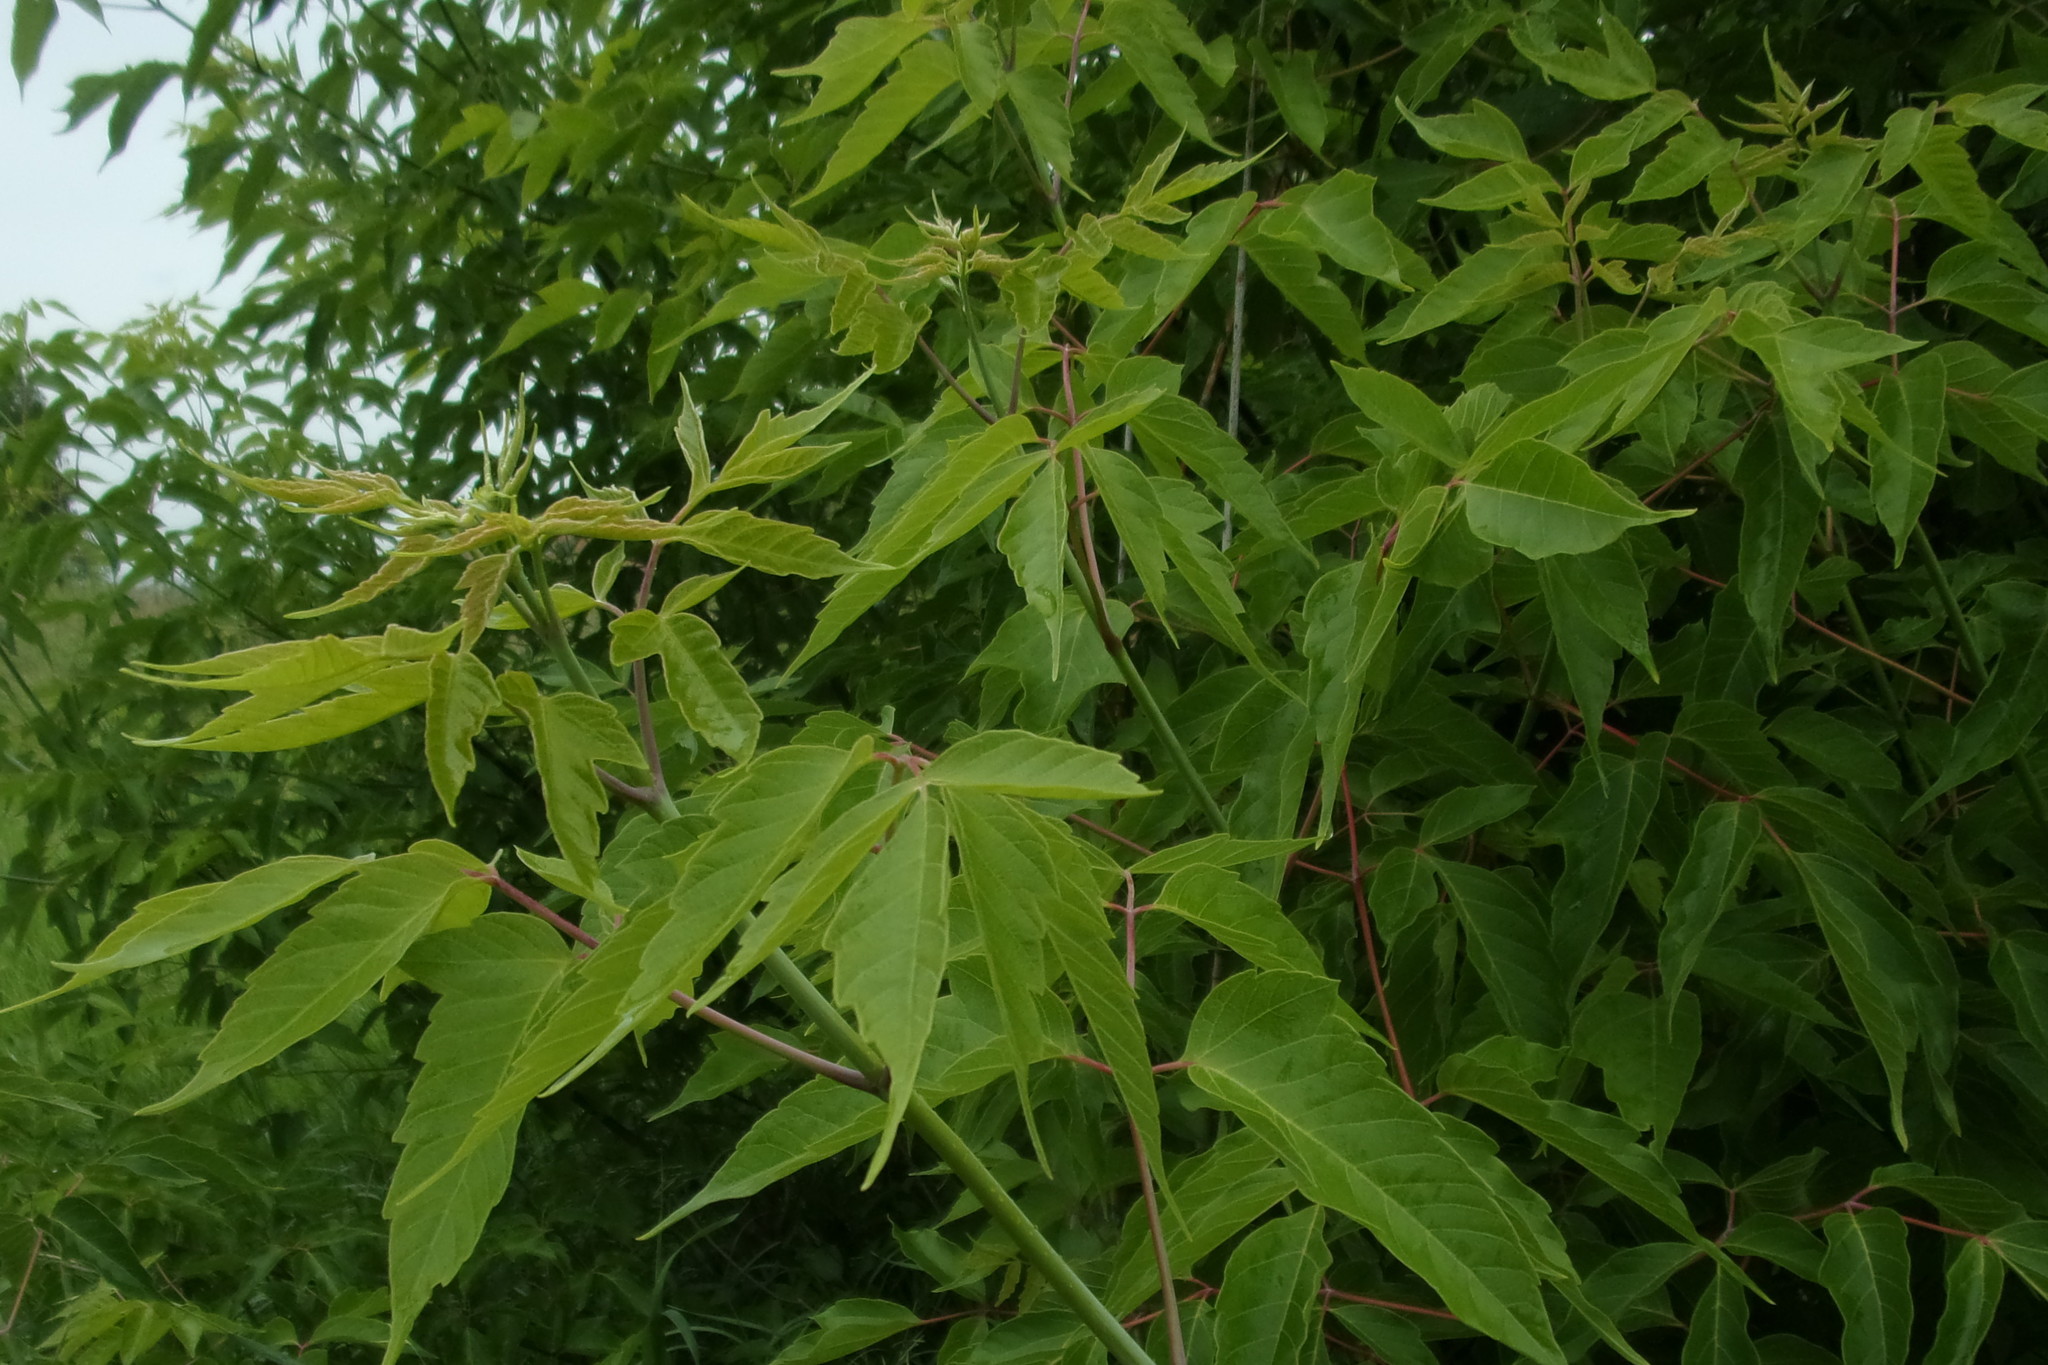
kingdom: Plantae
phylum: Tracheophyta
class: Magnoliopsida
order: Sapindales
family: Sapindaceae
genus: Acer
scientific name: Acer negundo
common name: Ashleaf maple
